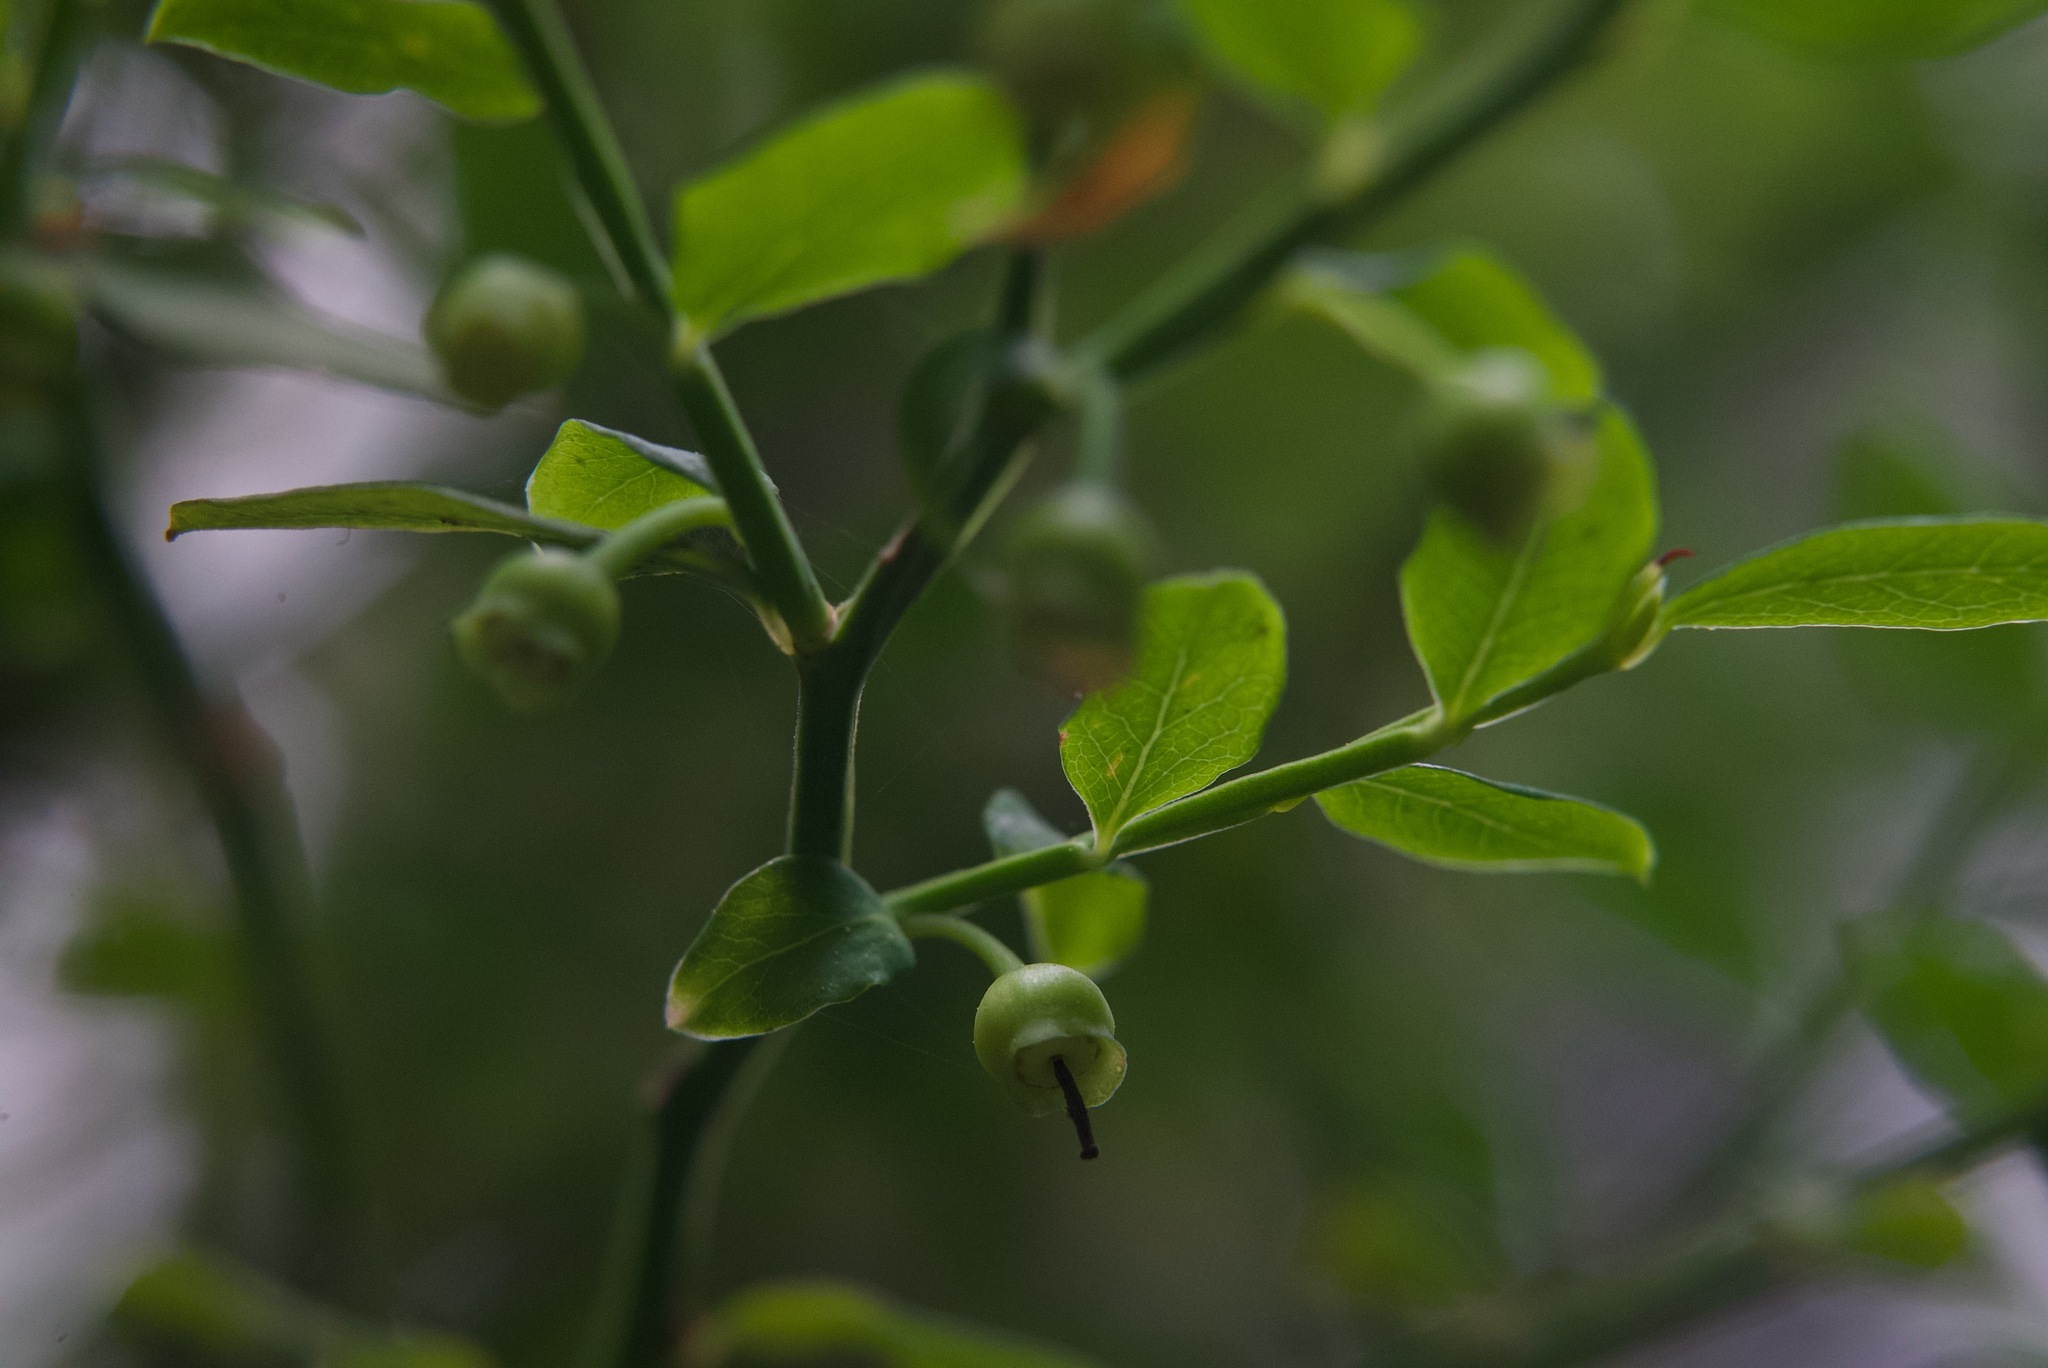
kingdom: Plantae
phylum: Tracheophyta
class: Magnoliopsida
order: Ericales
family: Ericaceae
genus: Vaccinium
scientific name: Vaccinium parvifolium
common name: Red-huckleberry
